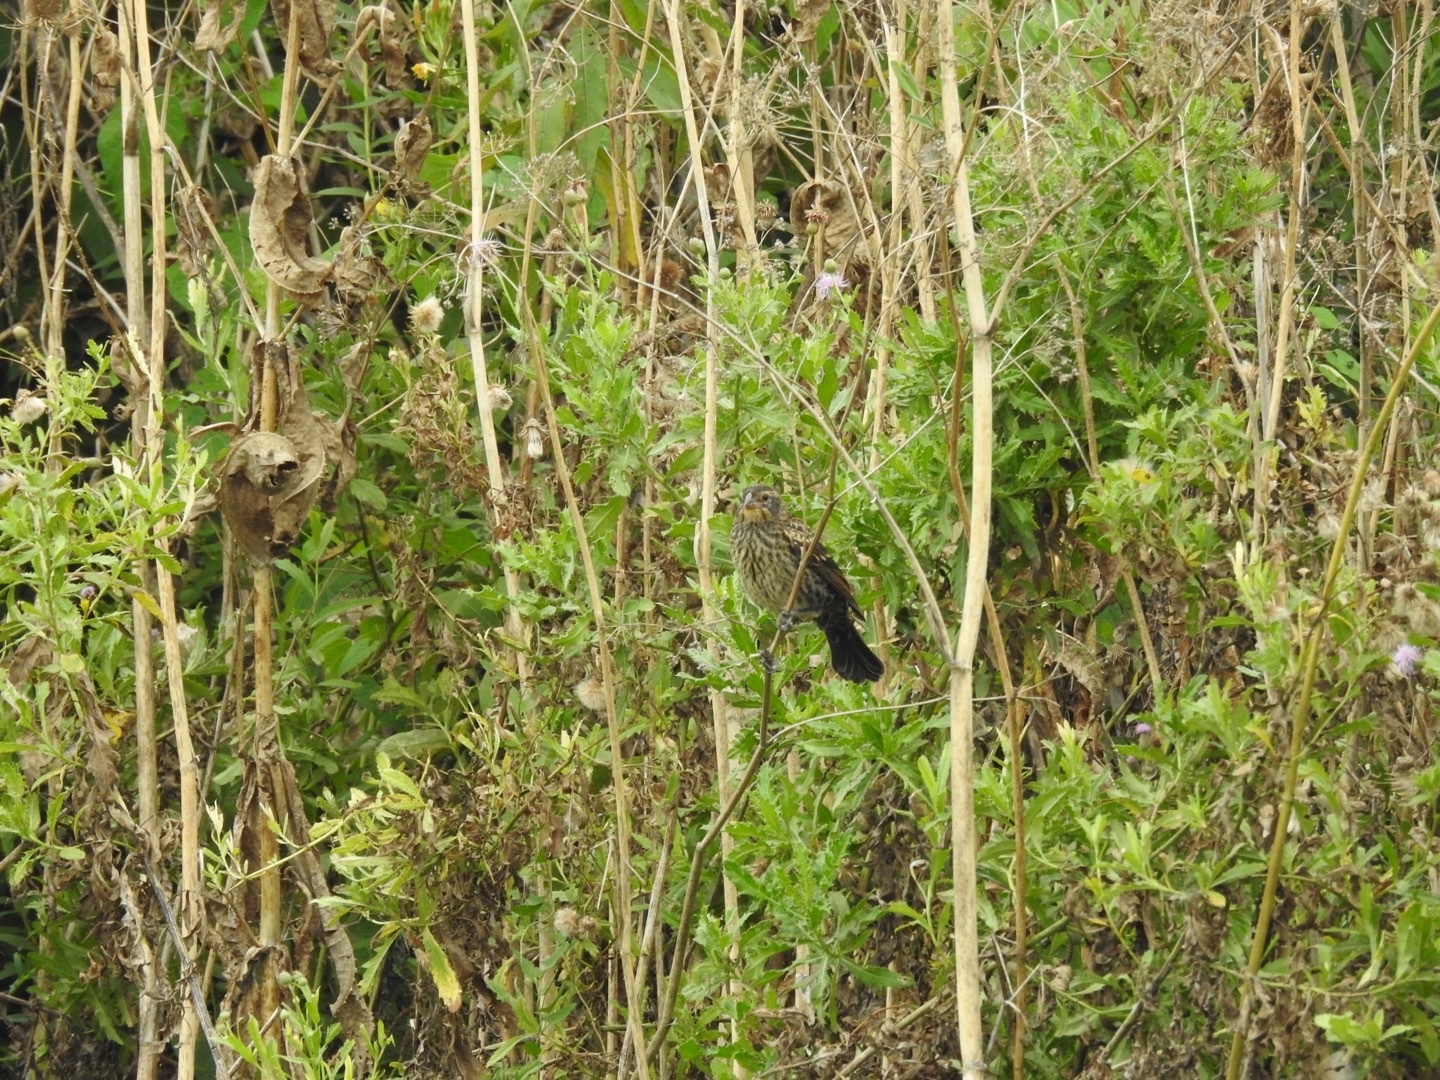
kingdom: Animalia
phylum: Chordata
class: Aves
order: Passeriformes
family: Icteridae
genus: Agelaius
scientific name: Agelaius phoeniceus
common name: Red-winged blackbird
